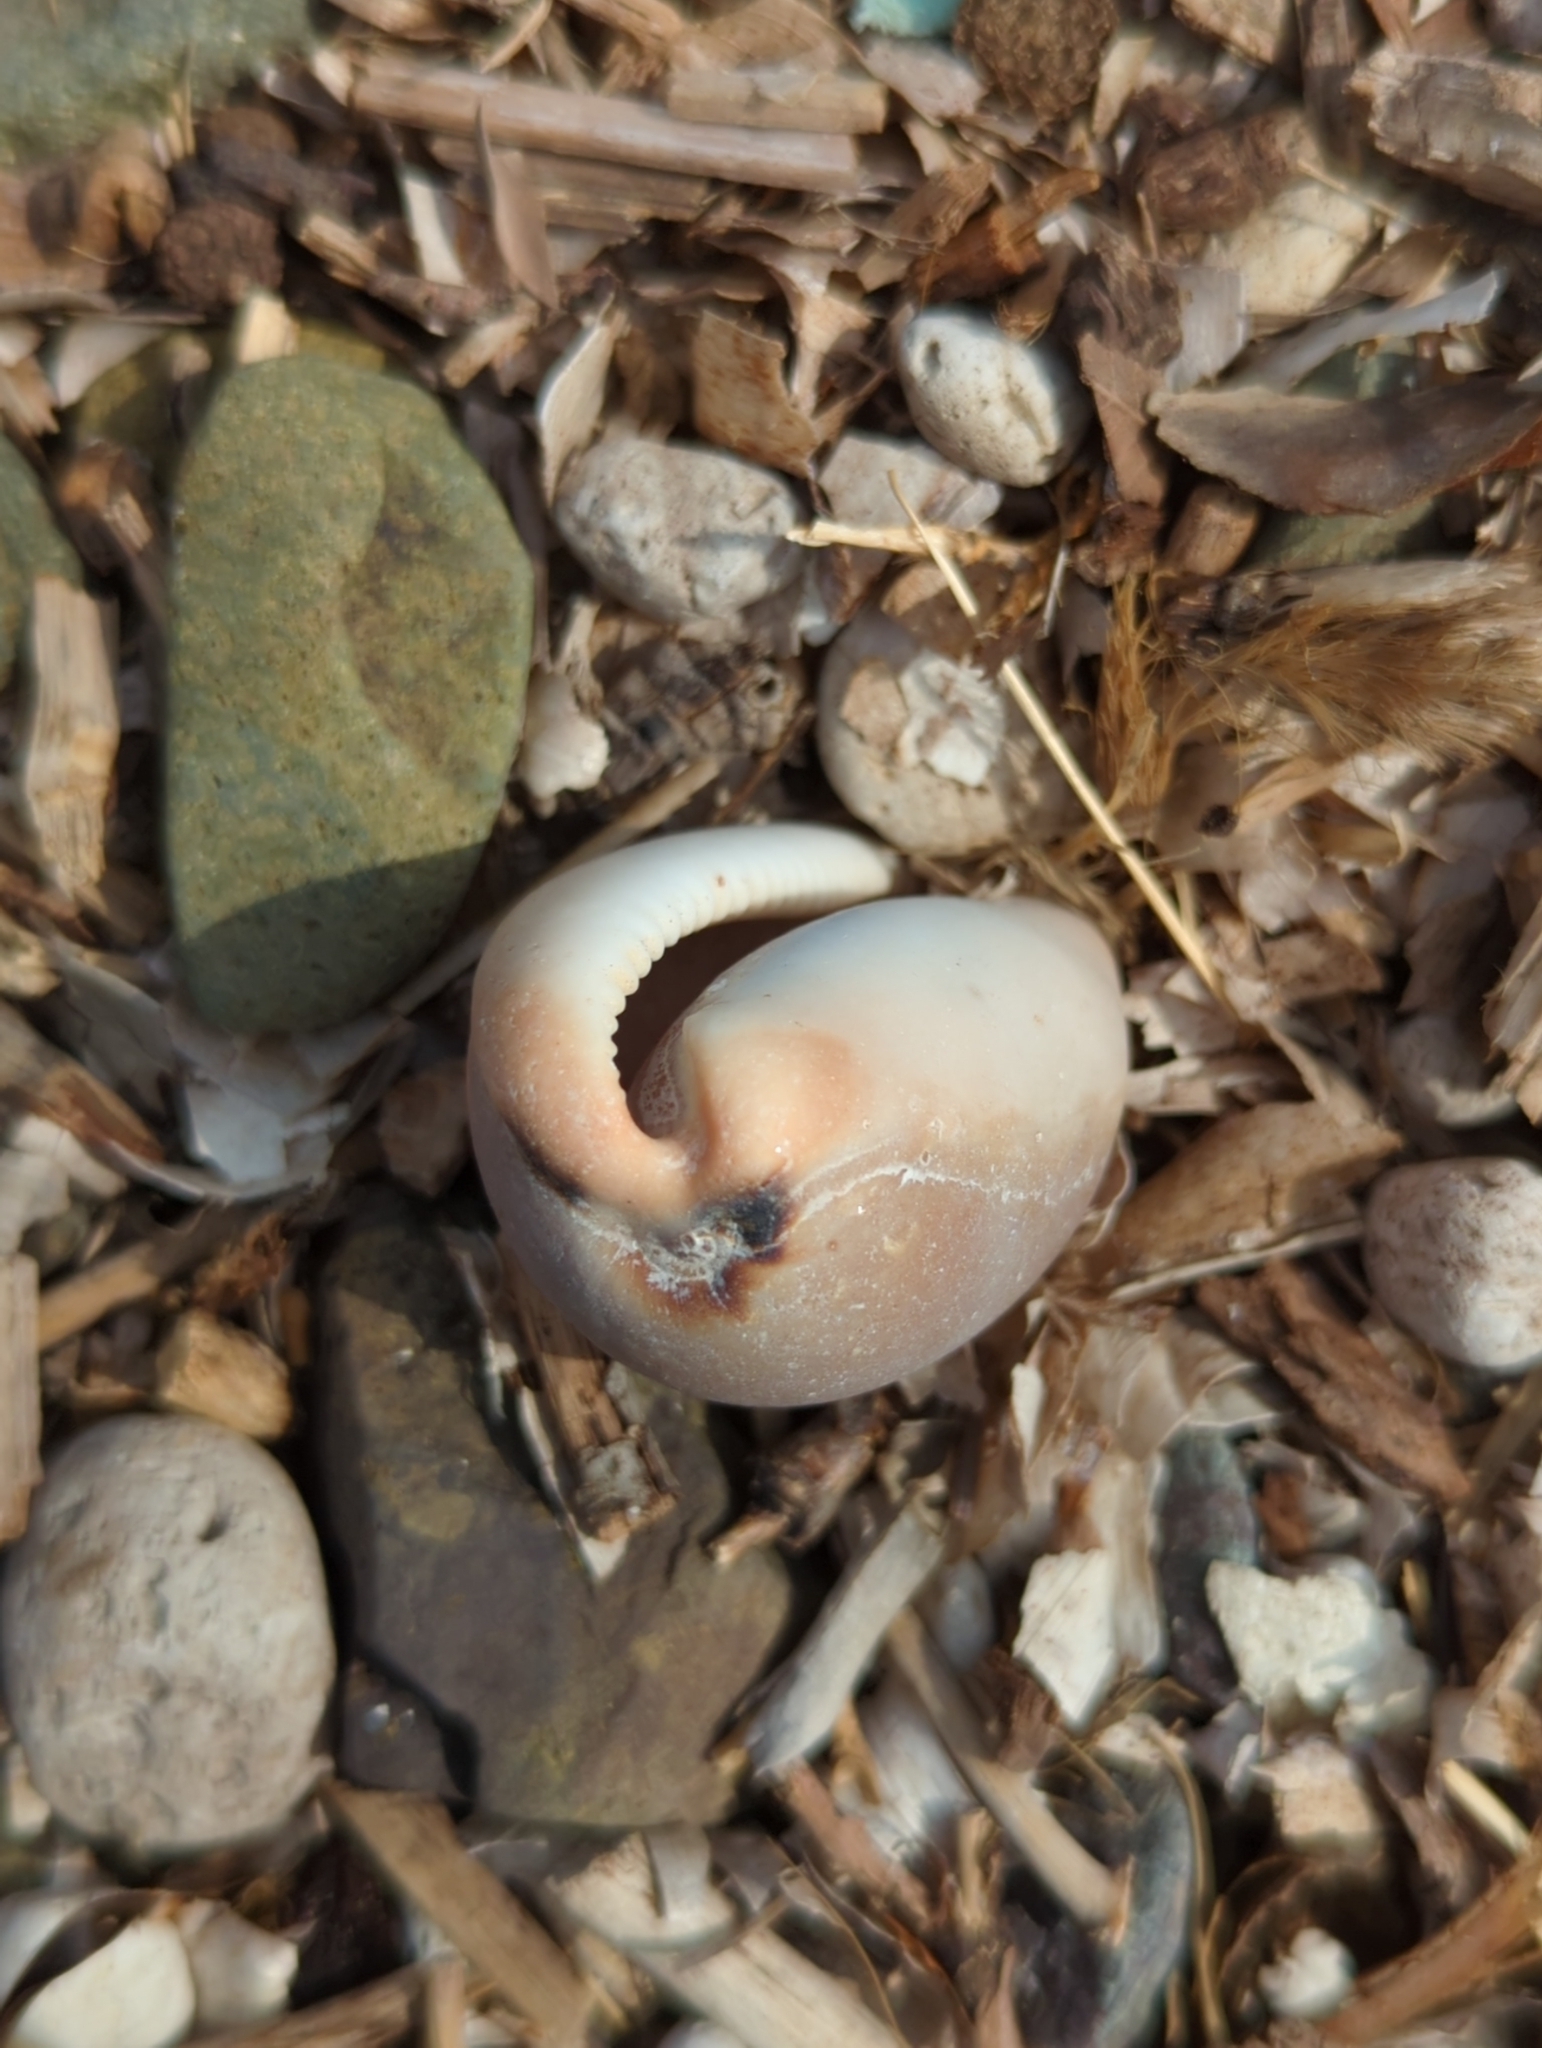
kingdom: Animalia
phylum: Mollusca
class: Gastropoda
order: Littorinimorpha
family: Cypraeidae
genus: Luria
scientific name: Luria lurida
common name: Brown cowry
